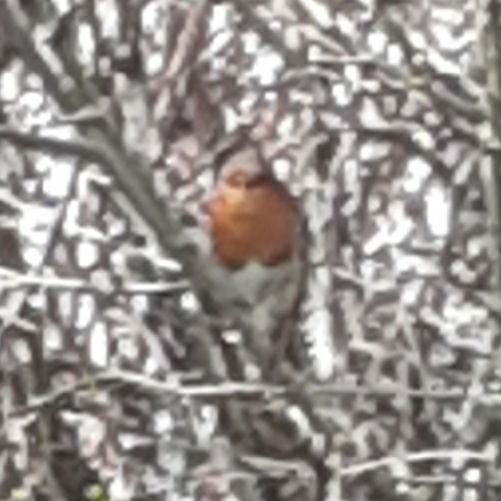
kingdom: Animalia
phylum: Chordata
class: Aves
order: Passeriformes
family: Muscicapidae
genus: Erithacus
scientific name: Erithacus rubecula
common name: European robin
